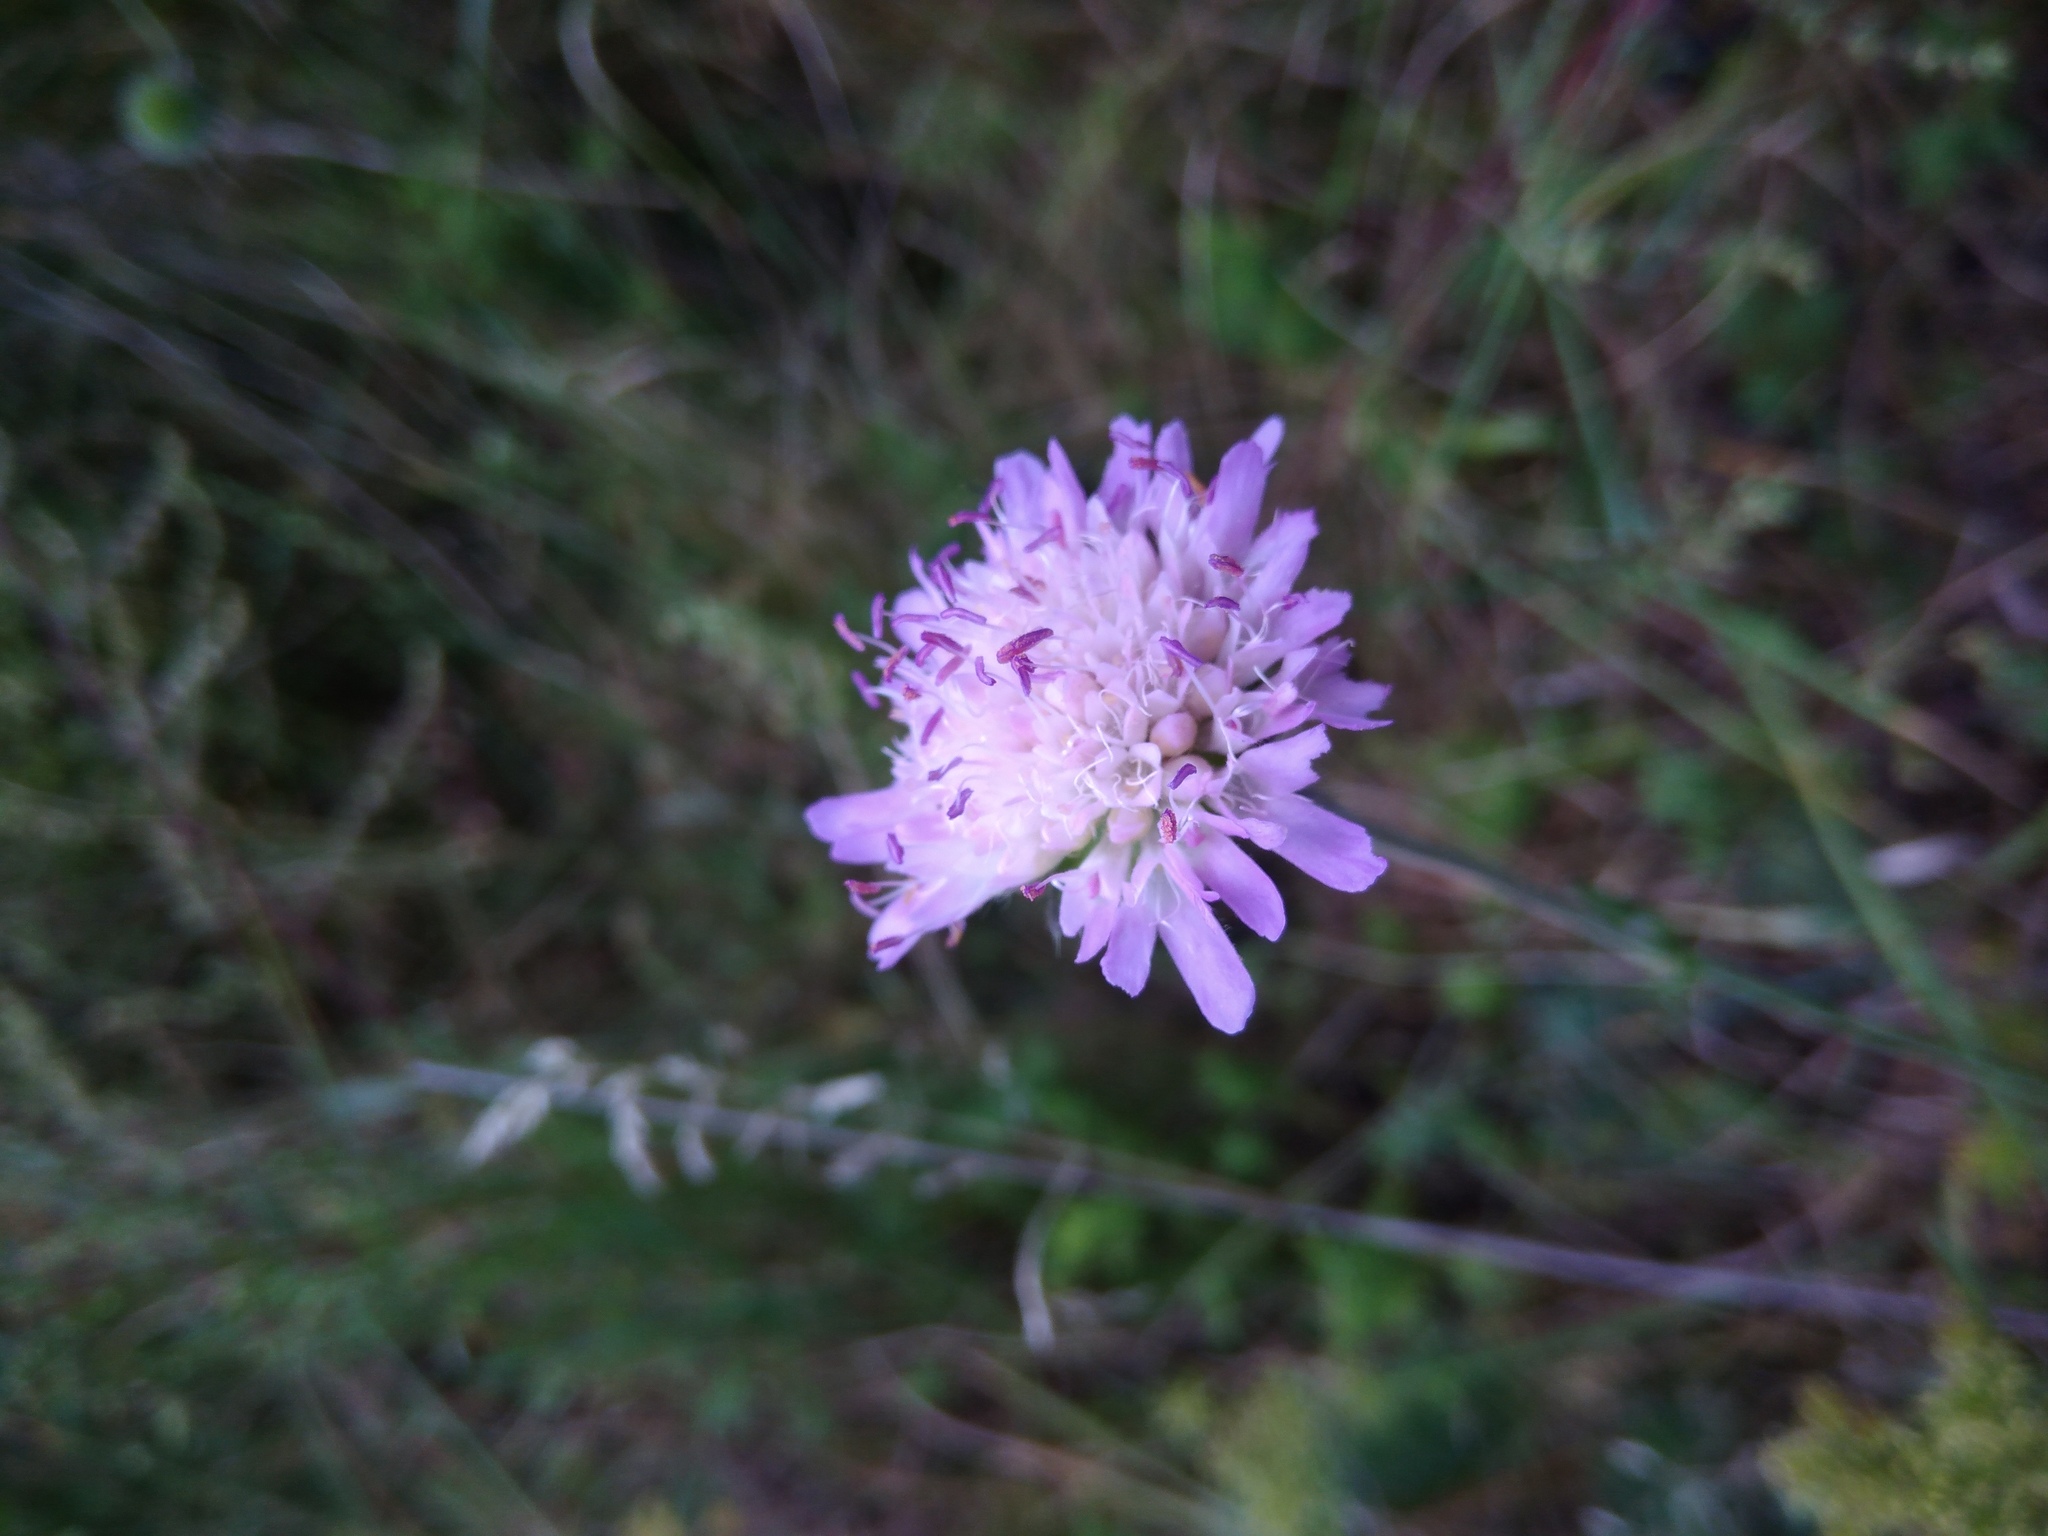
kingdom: Plantae
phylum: Tracheophyta
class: Magnoliopsida
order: Dipsacales
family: Caprifoliaceae
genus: Knautia
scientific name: Knautia arvensis
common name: Field scabiosa
